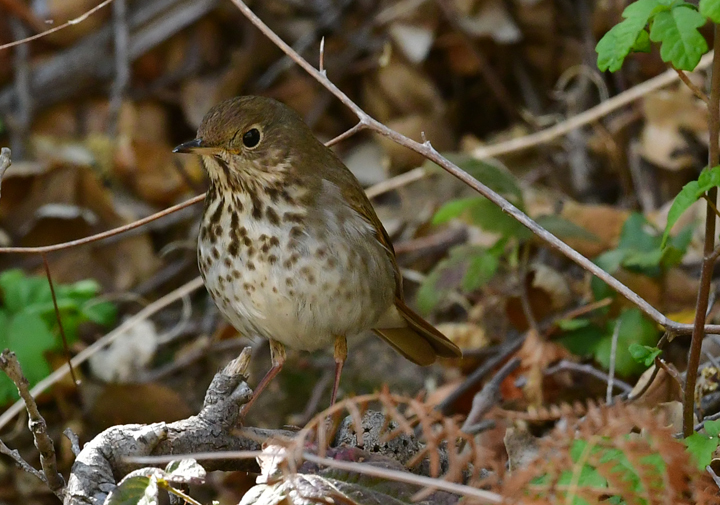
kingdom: Animalia
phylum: Chordata
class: Aves
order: Passeriformes
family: Turdidae
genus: Catharus
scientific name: Catharus guttatus
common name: Hermit thrush
